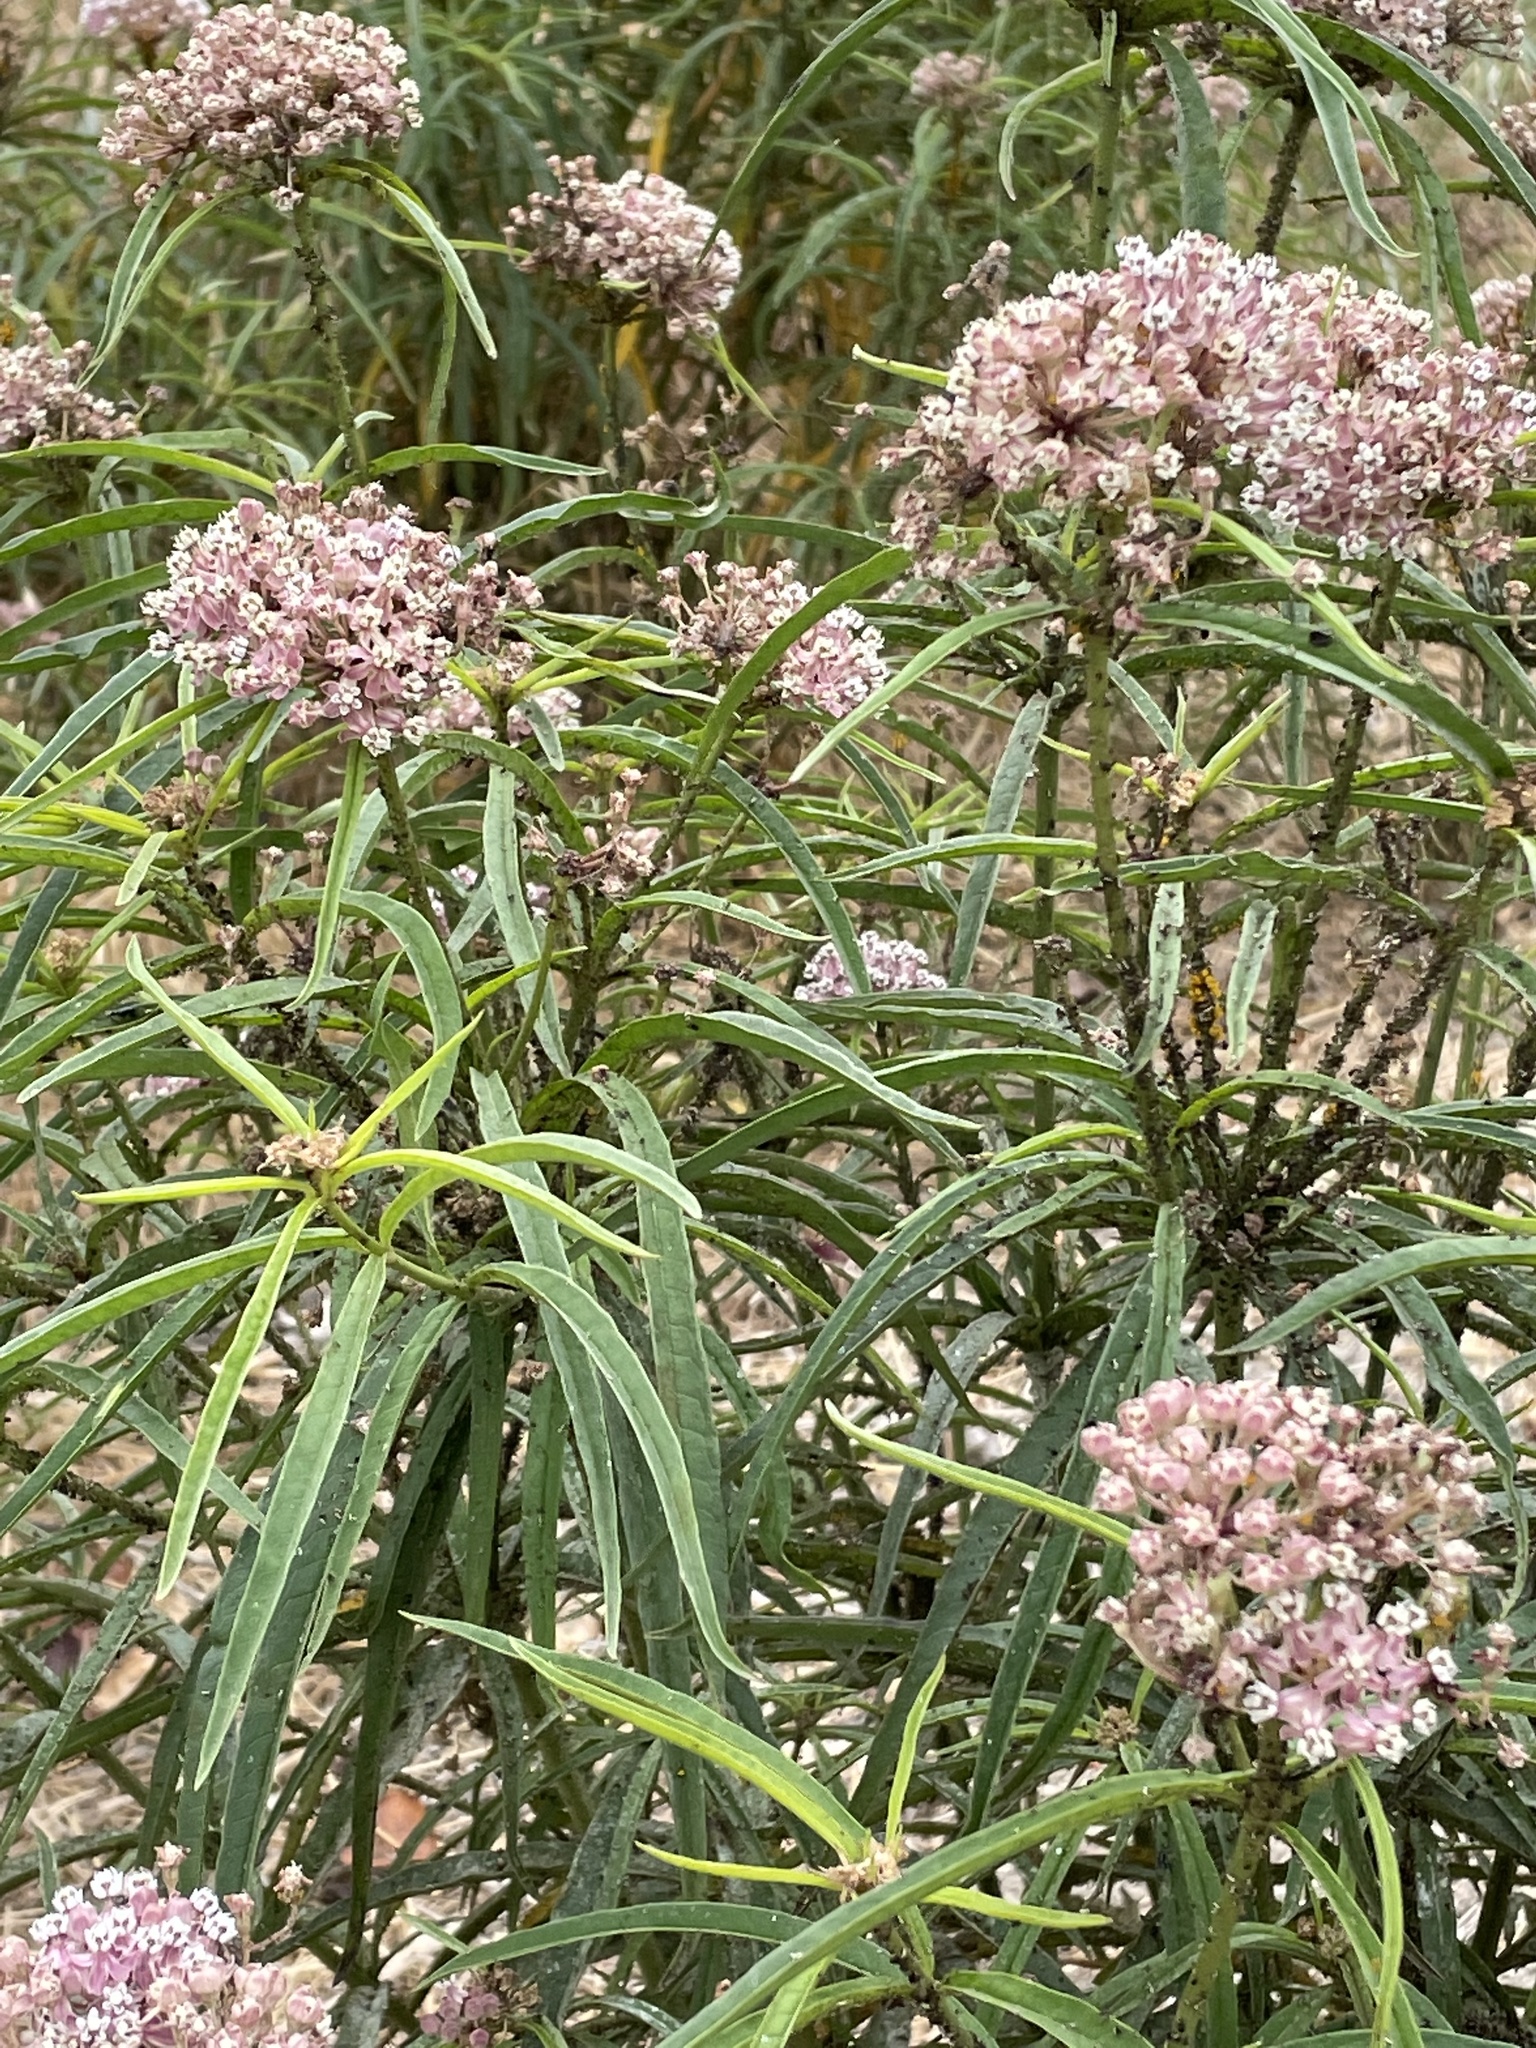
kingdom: Animalia
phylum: Arthropoda
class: Insecta
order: Hemiptera
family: Lygaeidae
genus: Oncopeltus
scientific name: Oncopeltus fasciatus
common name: Large milkweed bug
